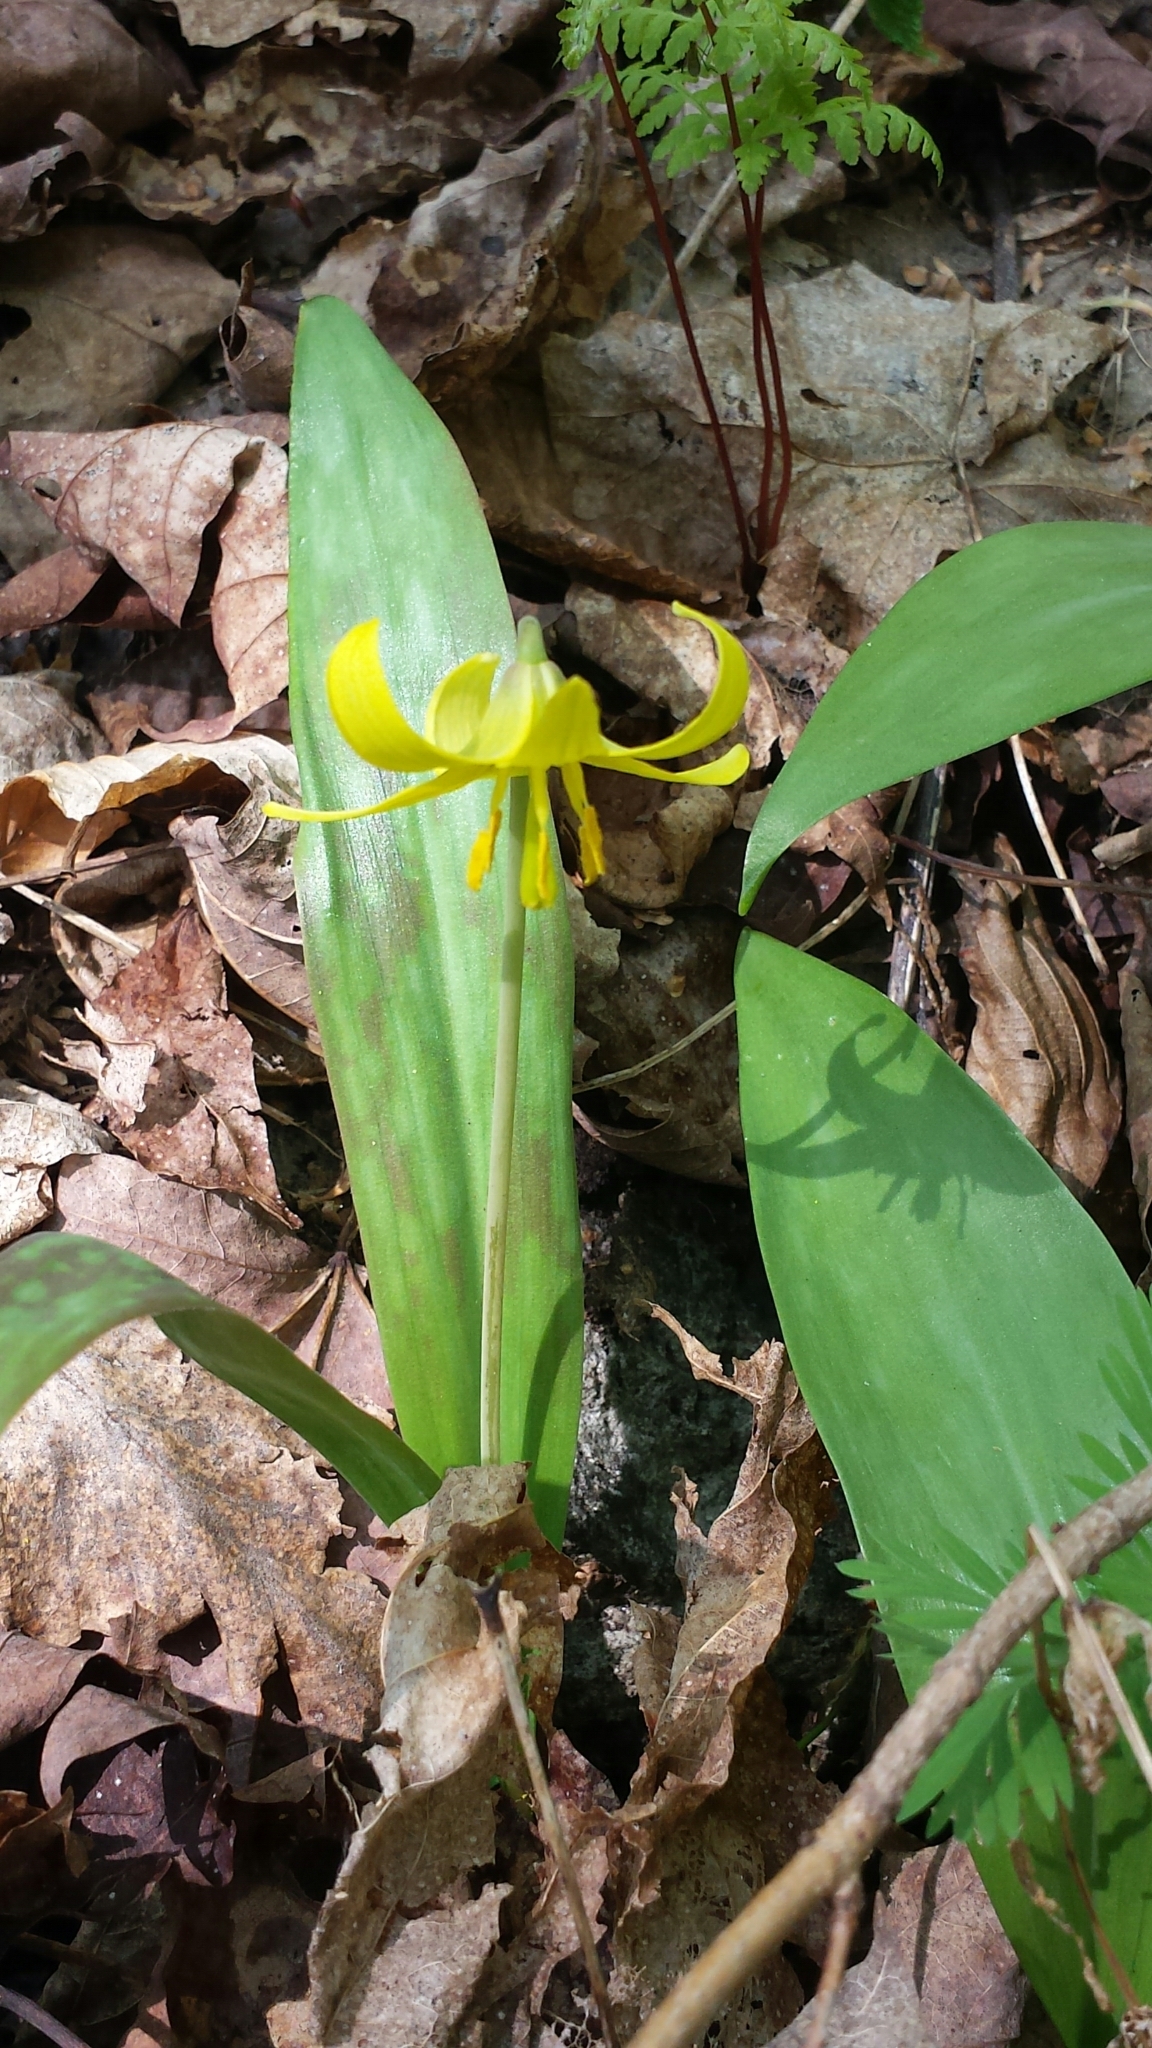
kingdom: Plantae
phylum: Tracheophyta
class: Liliopsida
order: Liliales
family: Liliaceae
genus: Erythronium
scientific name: Erythronium americanum
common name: Yellow adder's-tongue
